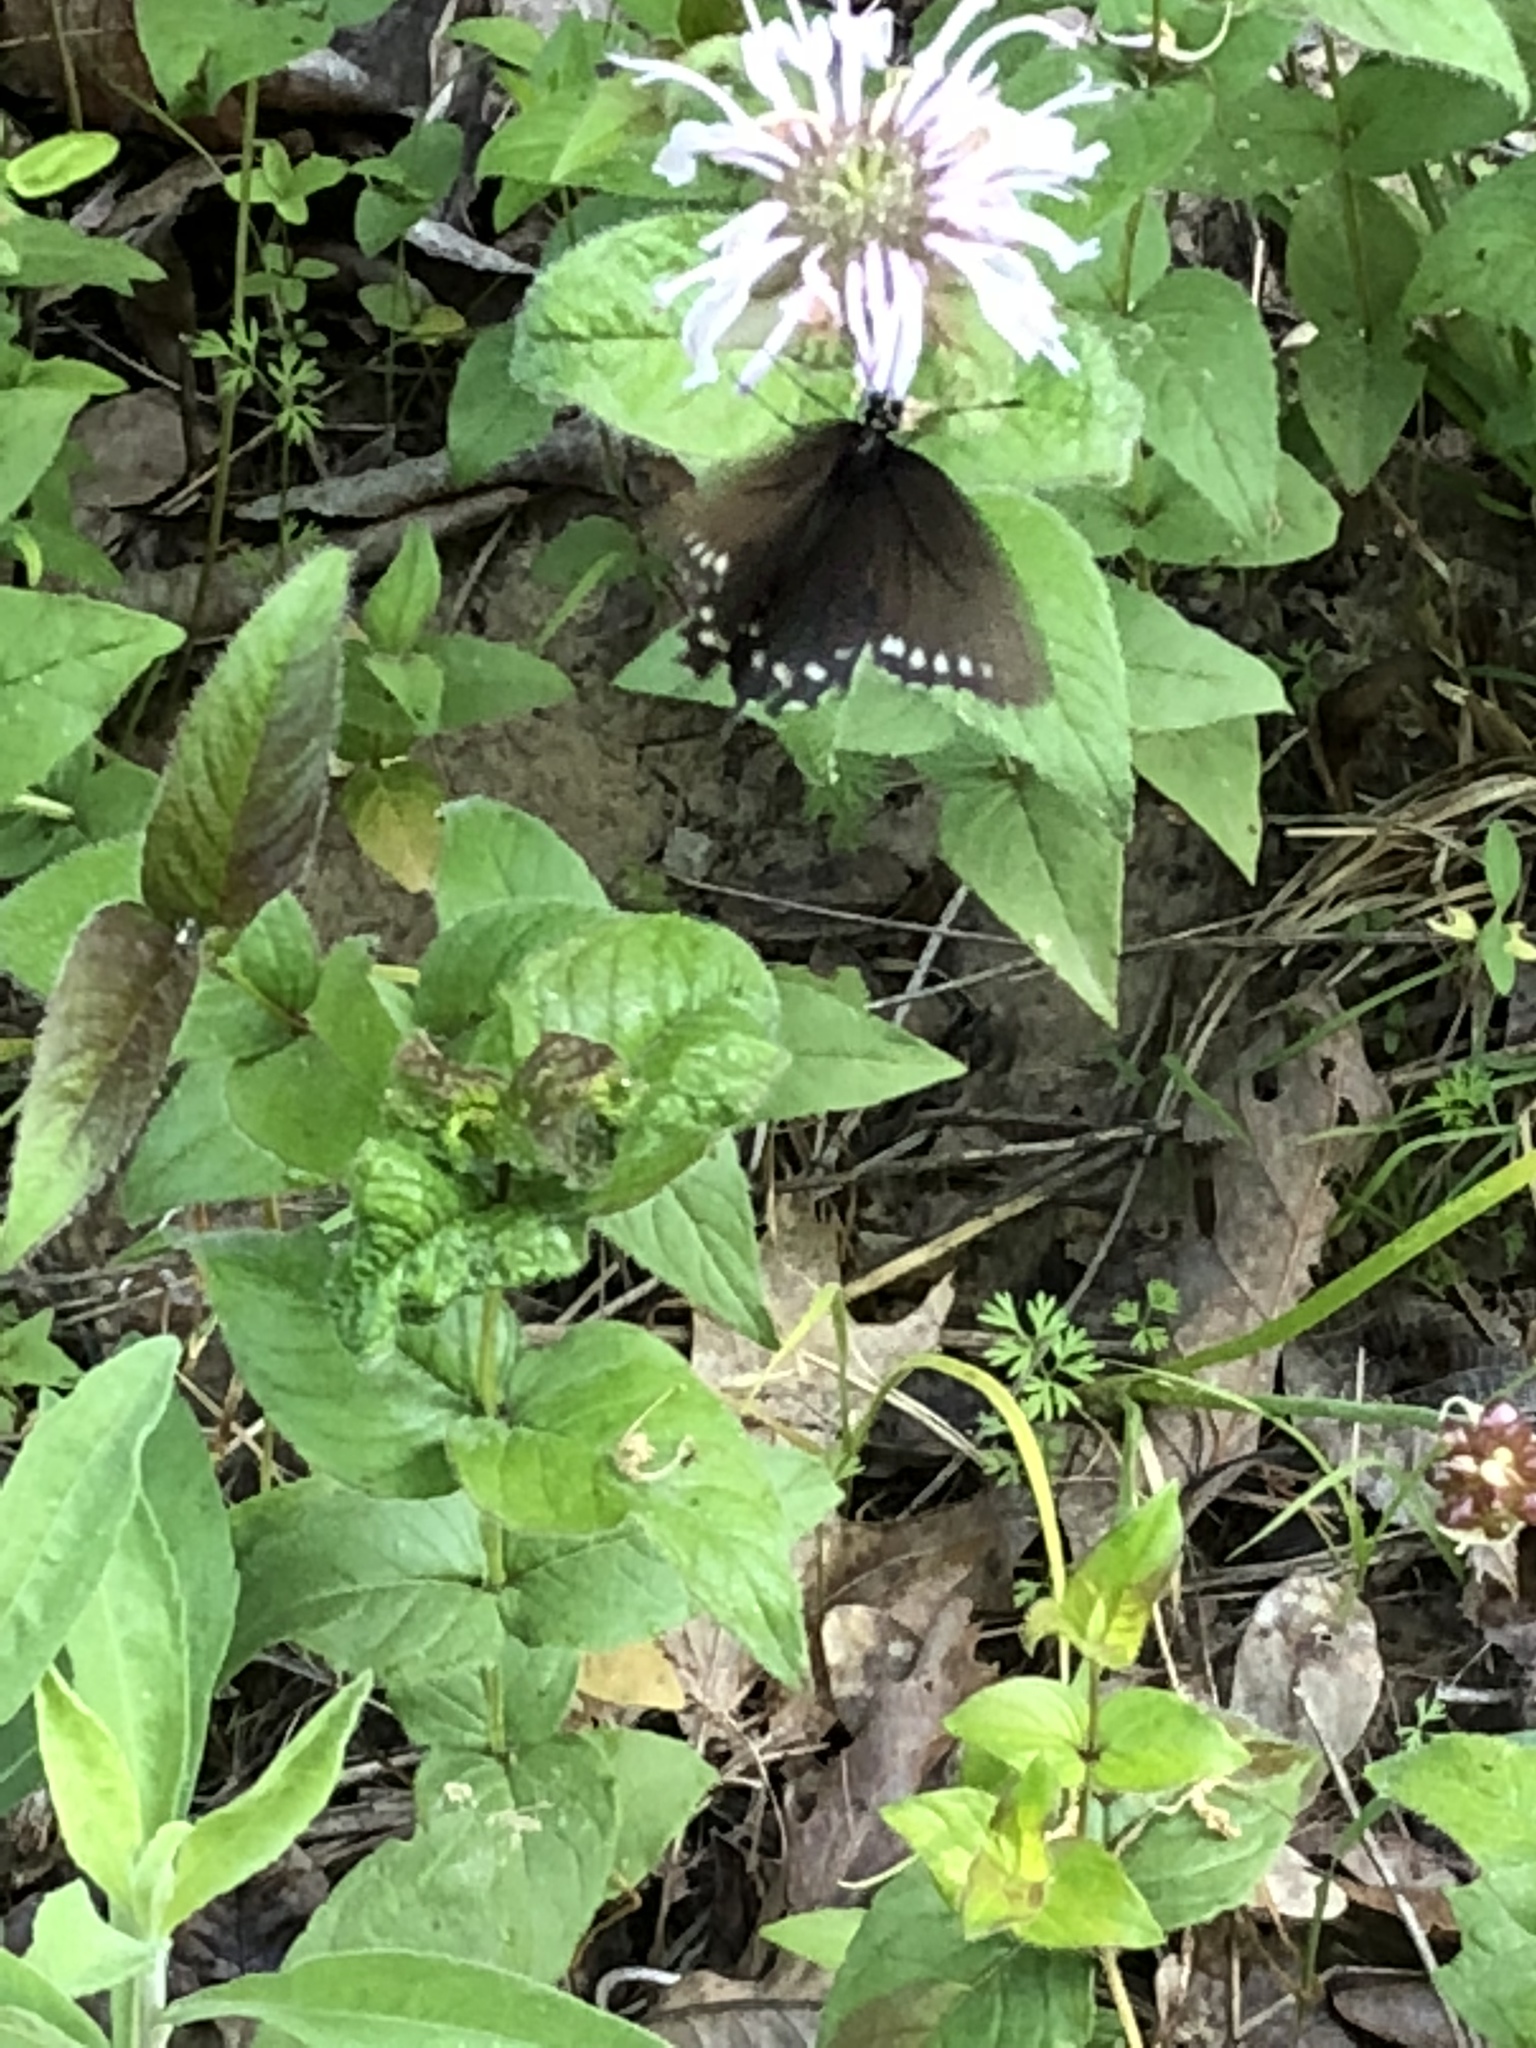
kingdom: Animalia
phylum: Arthropoda
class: Insecta
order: Lepidoptera
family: Papilionidae
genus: Battus
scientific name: Battus philenor
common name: Pipevine swallowtail
